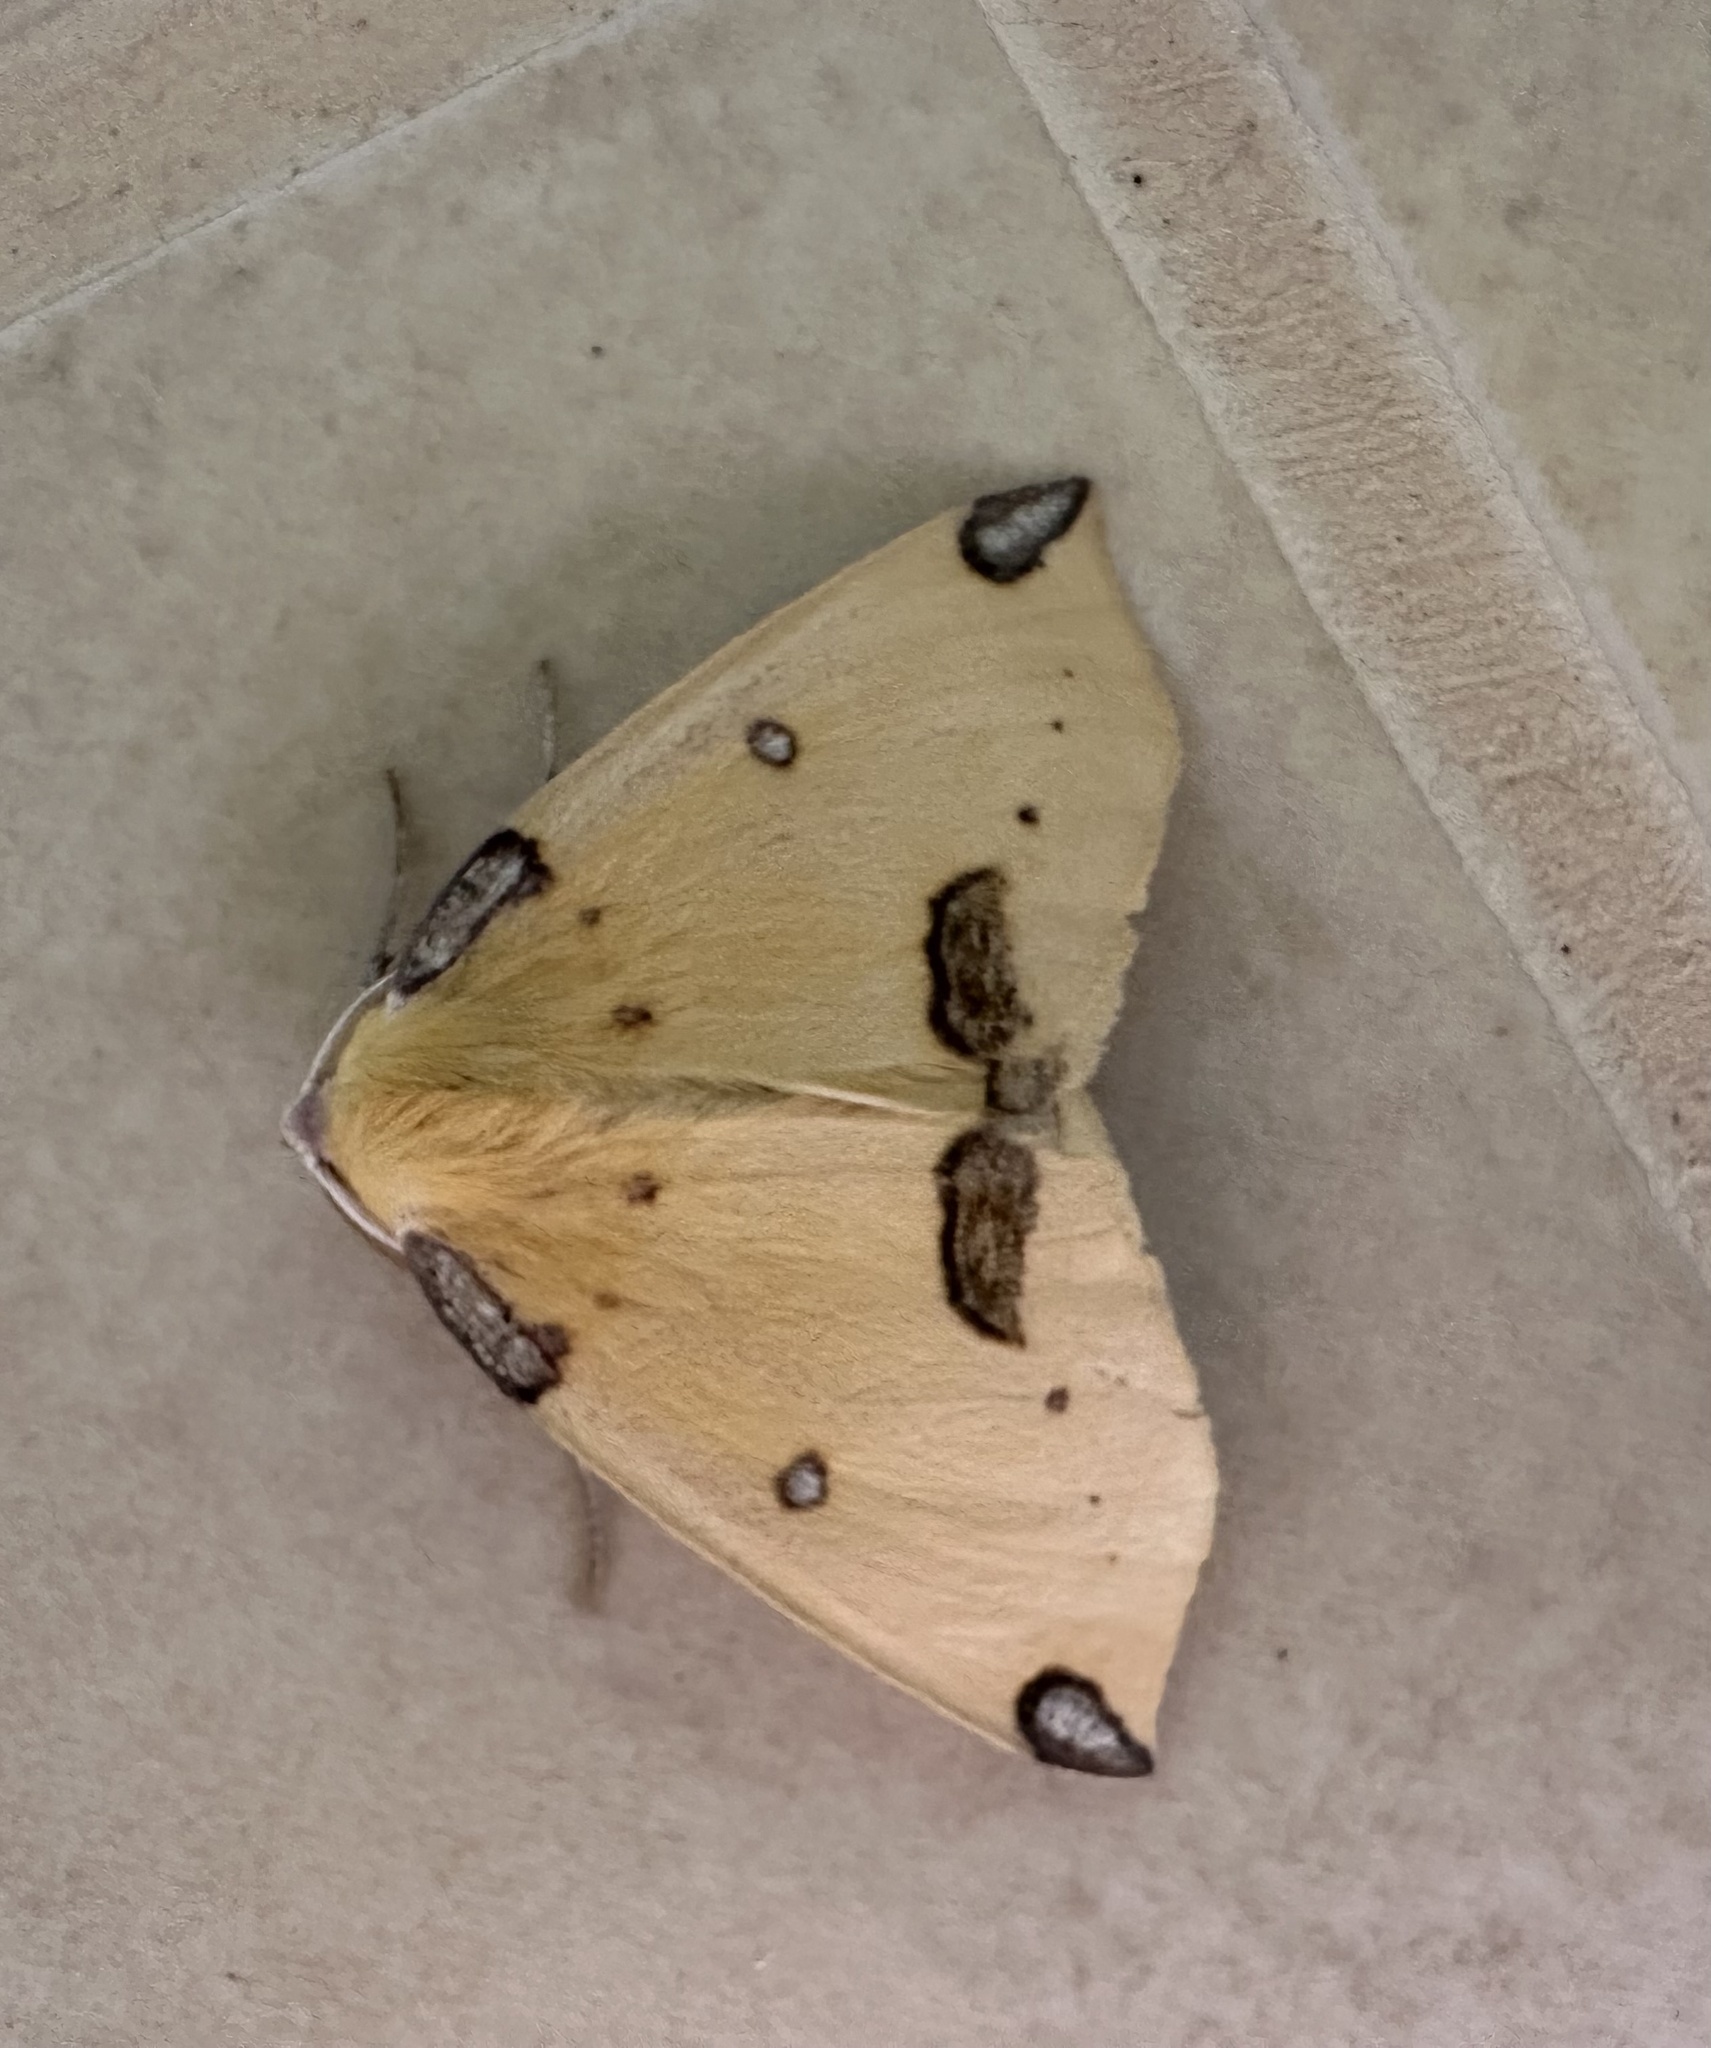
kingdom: Animalia
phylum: Arthropoda
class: Insecta
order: Lepidoptera
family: Geometridae
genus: Microsema
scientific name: Microsema plagiata
